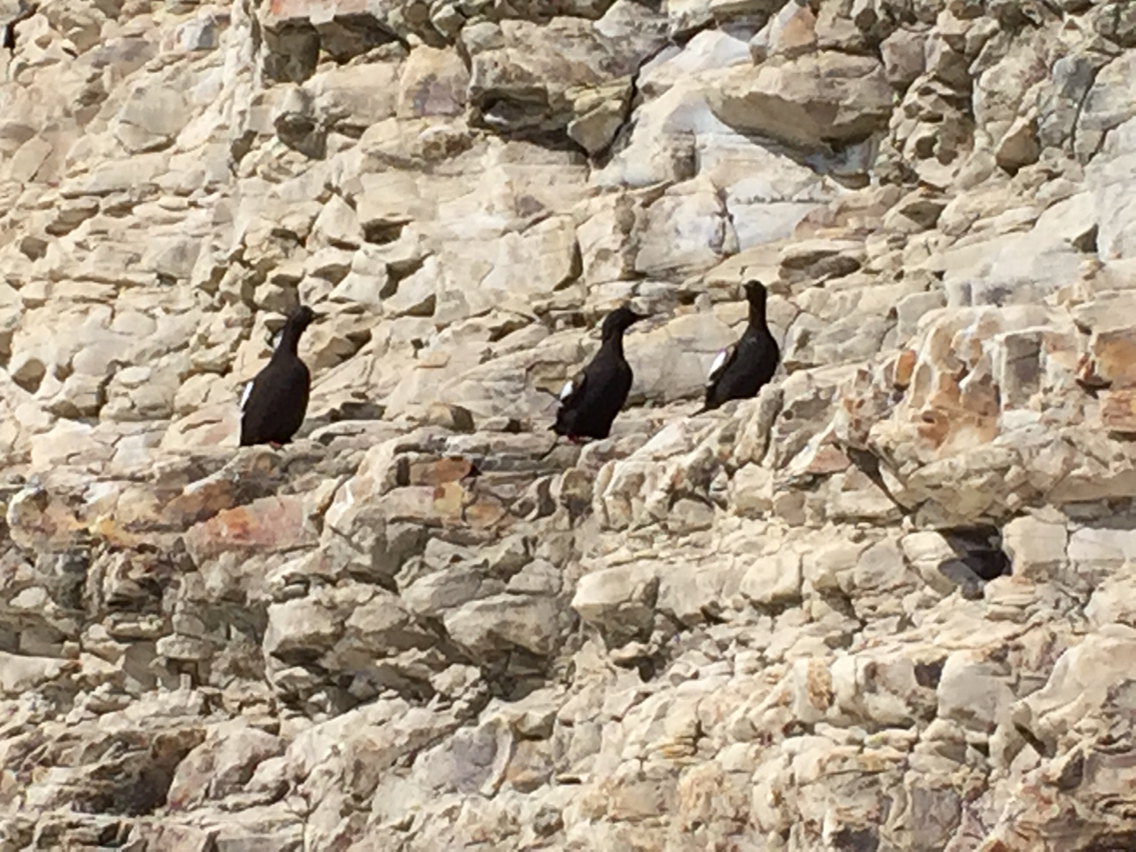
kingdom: Animalia
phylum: Chordata
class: Aves
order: Charadriiformes
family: Alcidae
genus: Cepphus
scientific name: Cepphus columba
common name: Pigeon guillemot
